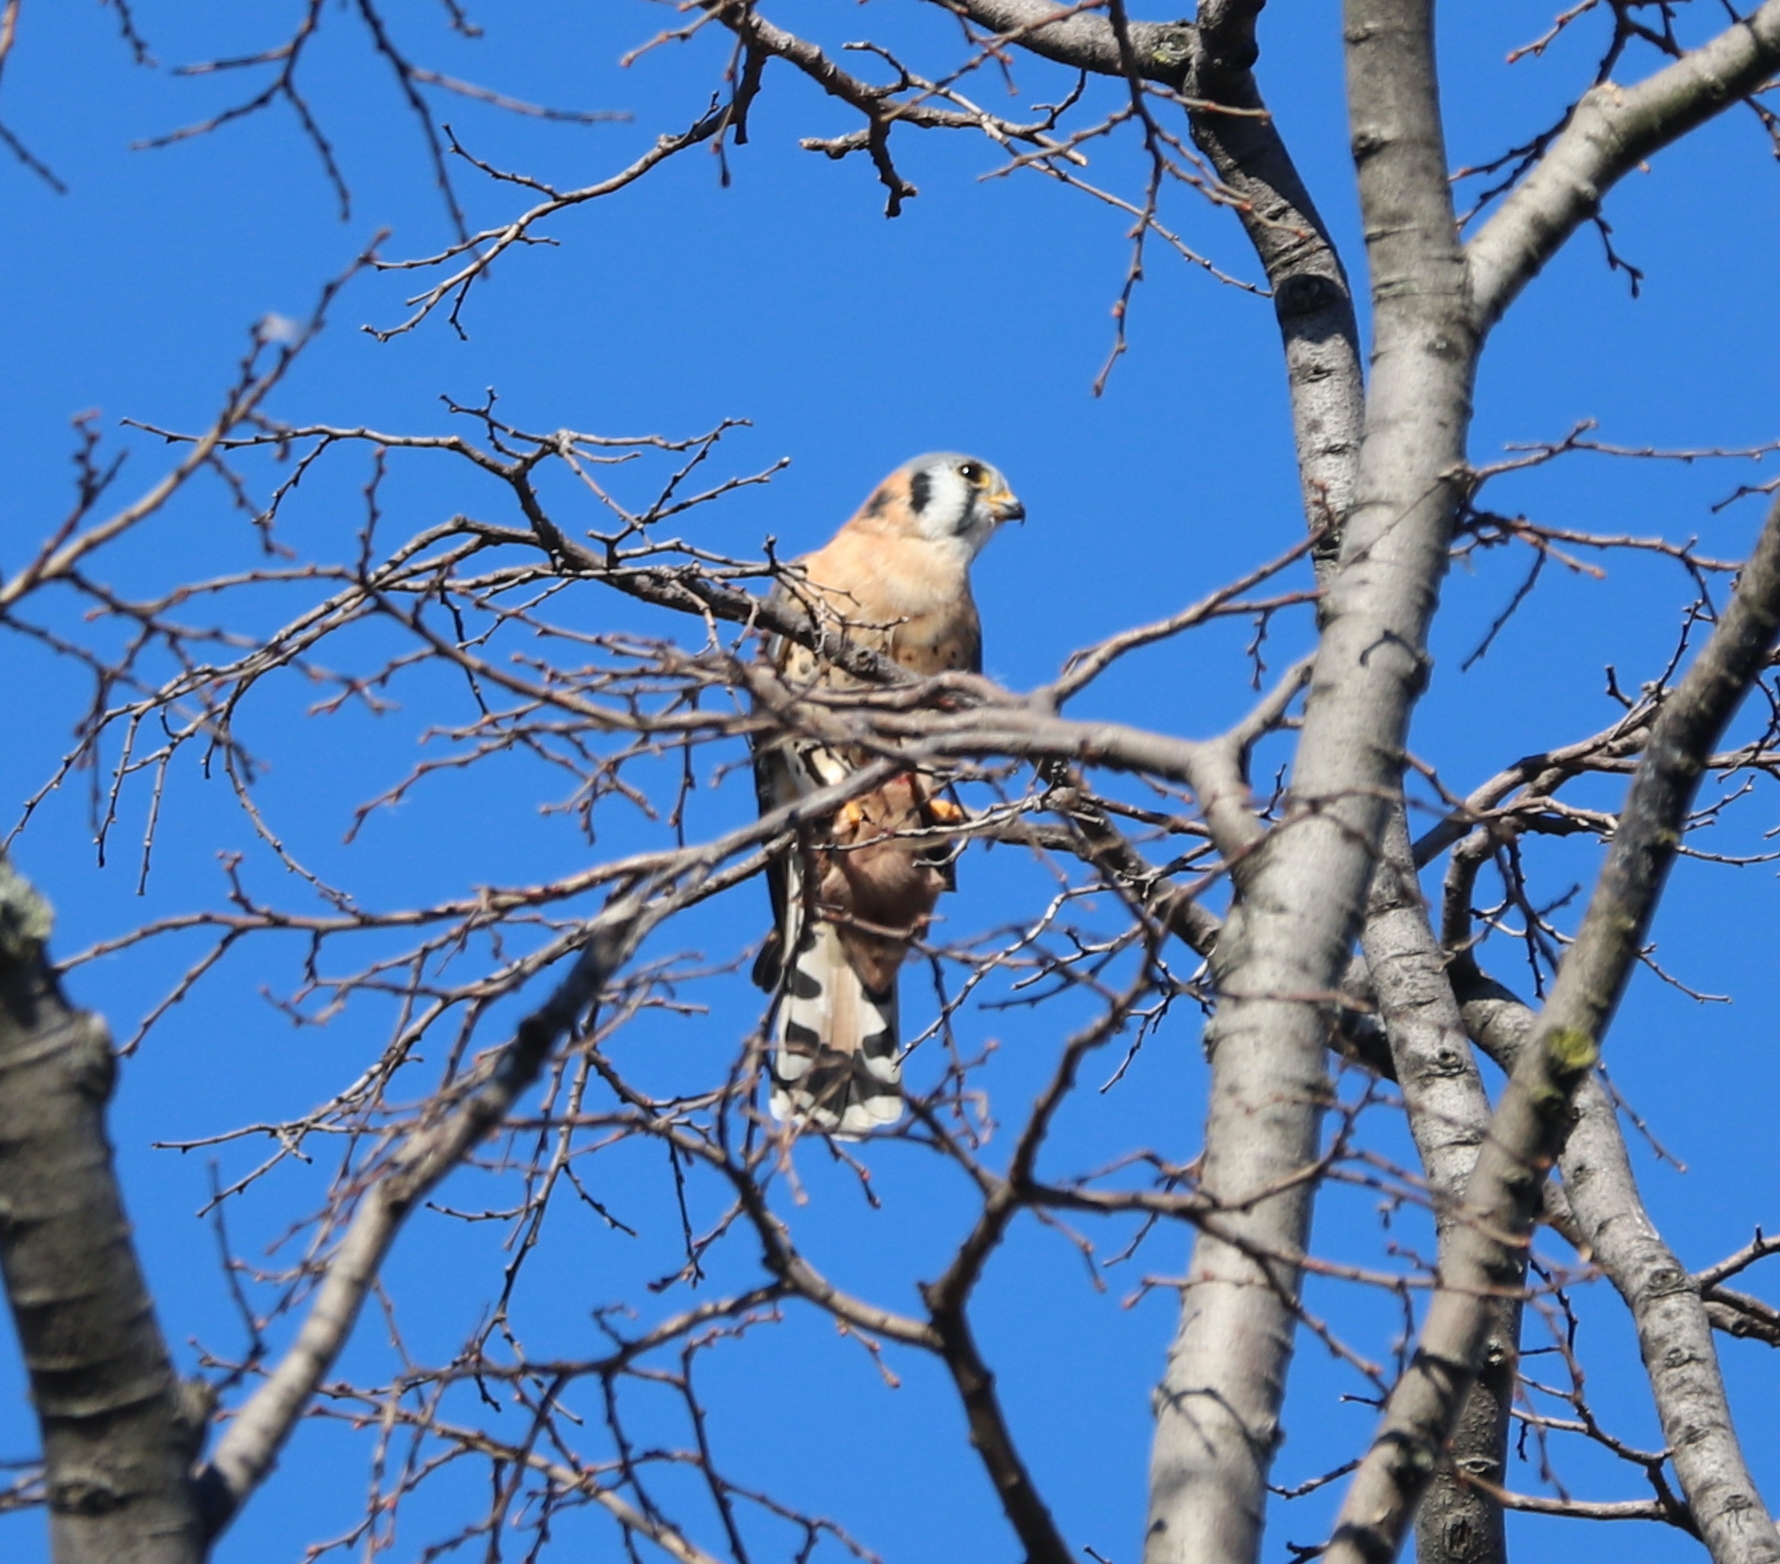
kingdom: Animalia
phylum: Chordata
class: Aves
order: Falconiformes
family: Falconidae
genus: Falco
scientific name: Falco sparverius
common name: American kestrel
